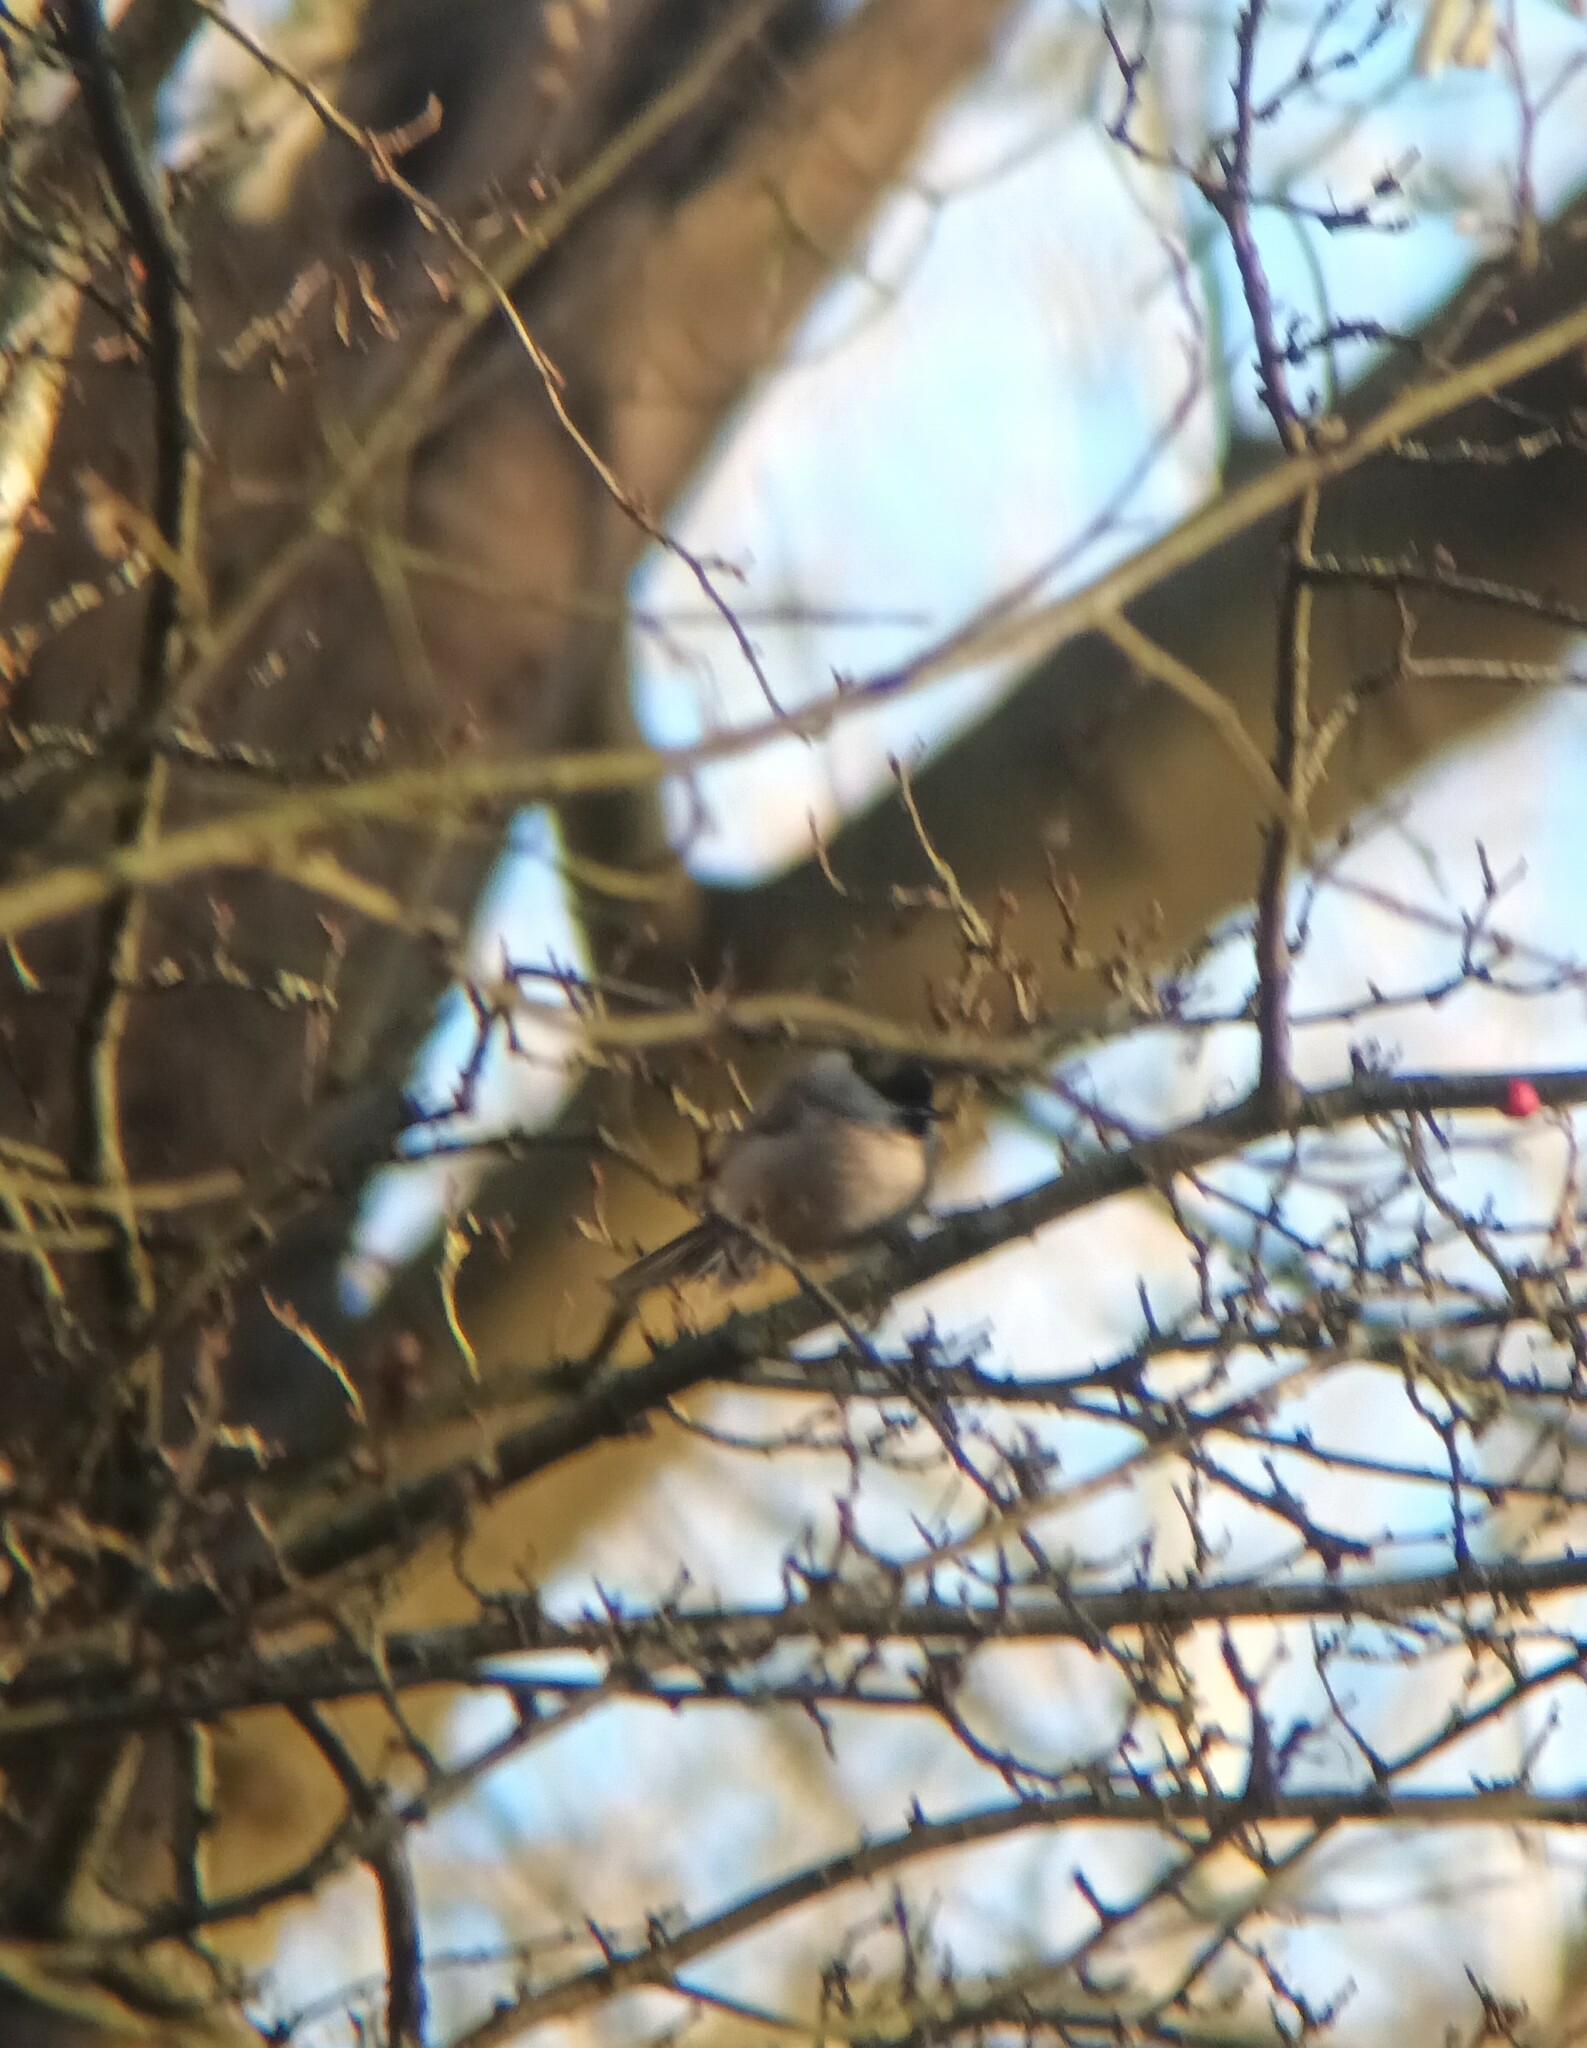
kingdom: Animalia
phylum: Chordata
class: Aves
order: Passeriformes
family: Paridae
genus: Poecile
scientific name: Poecile palustris
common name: Marsh tit
